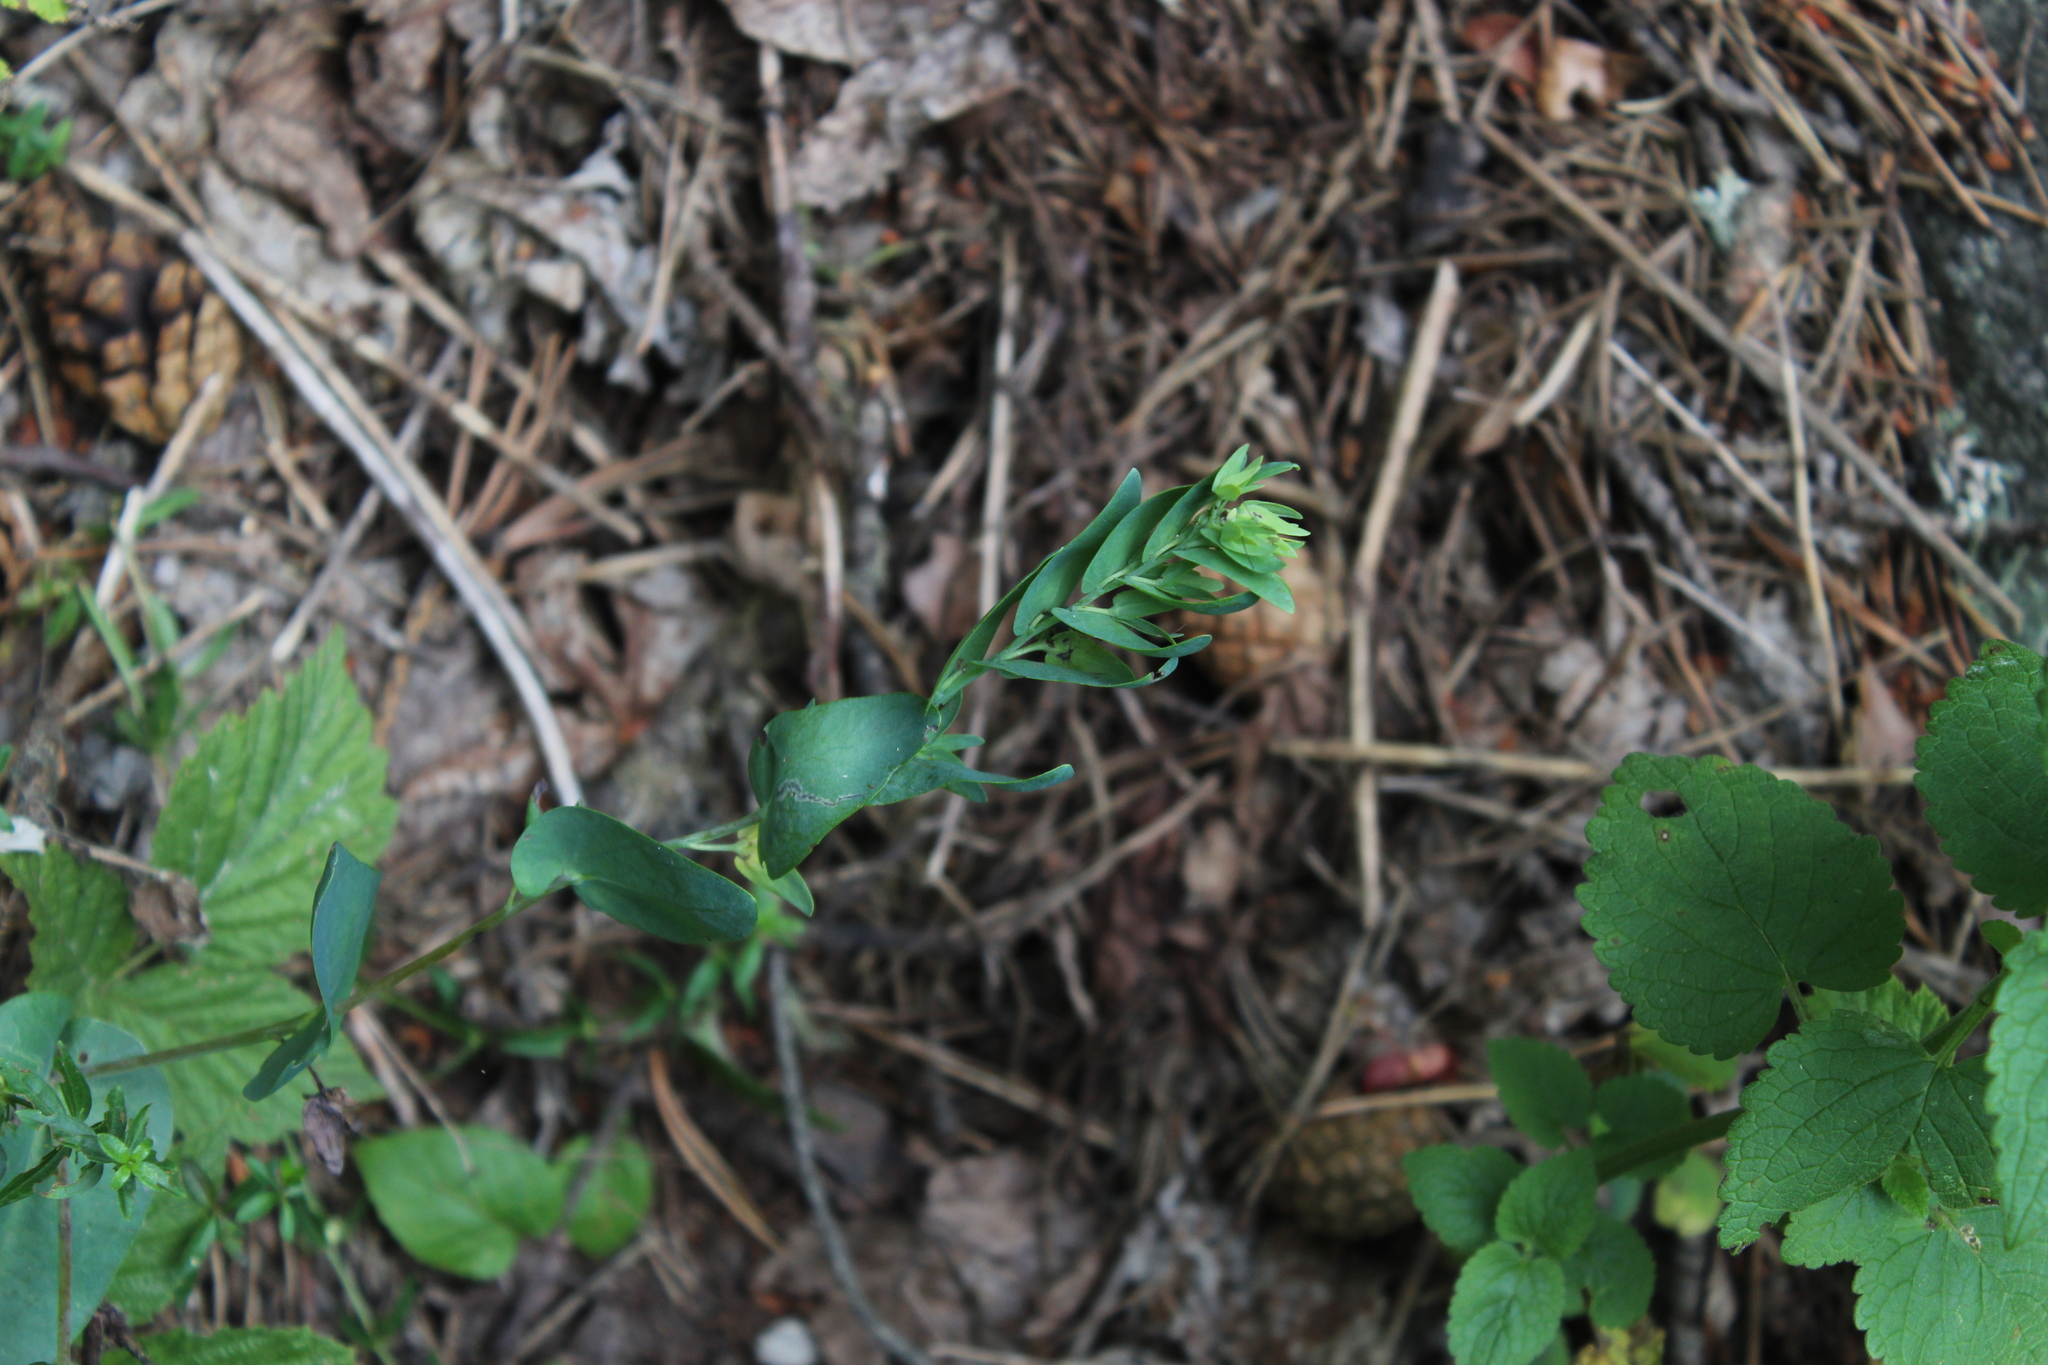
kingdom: Plantae
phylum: Tracheophyta
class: Magnoliopsida
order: Boraginales
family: Boraginaceae
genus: Cerinthe
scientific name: Cerinthe minor
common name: Lesser honeywort
